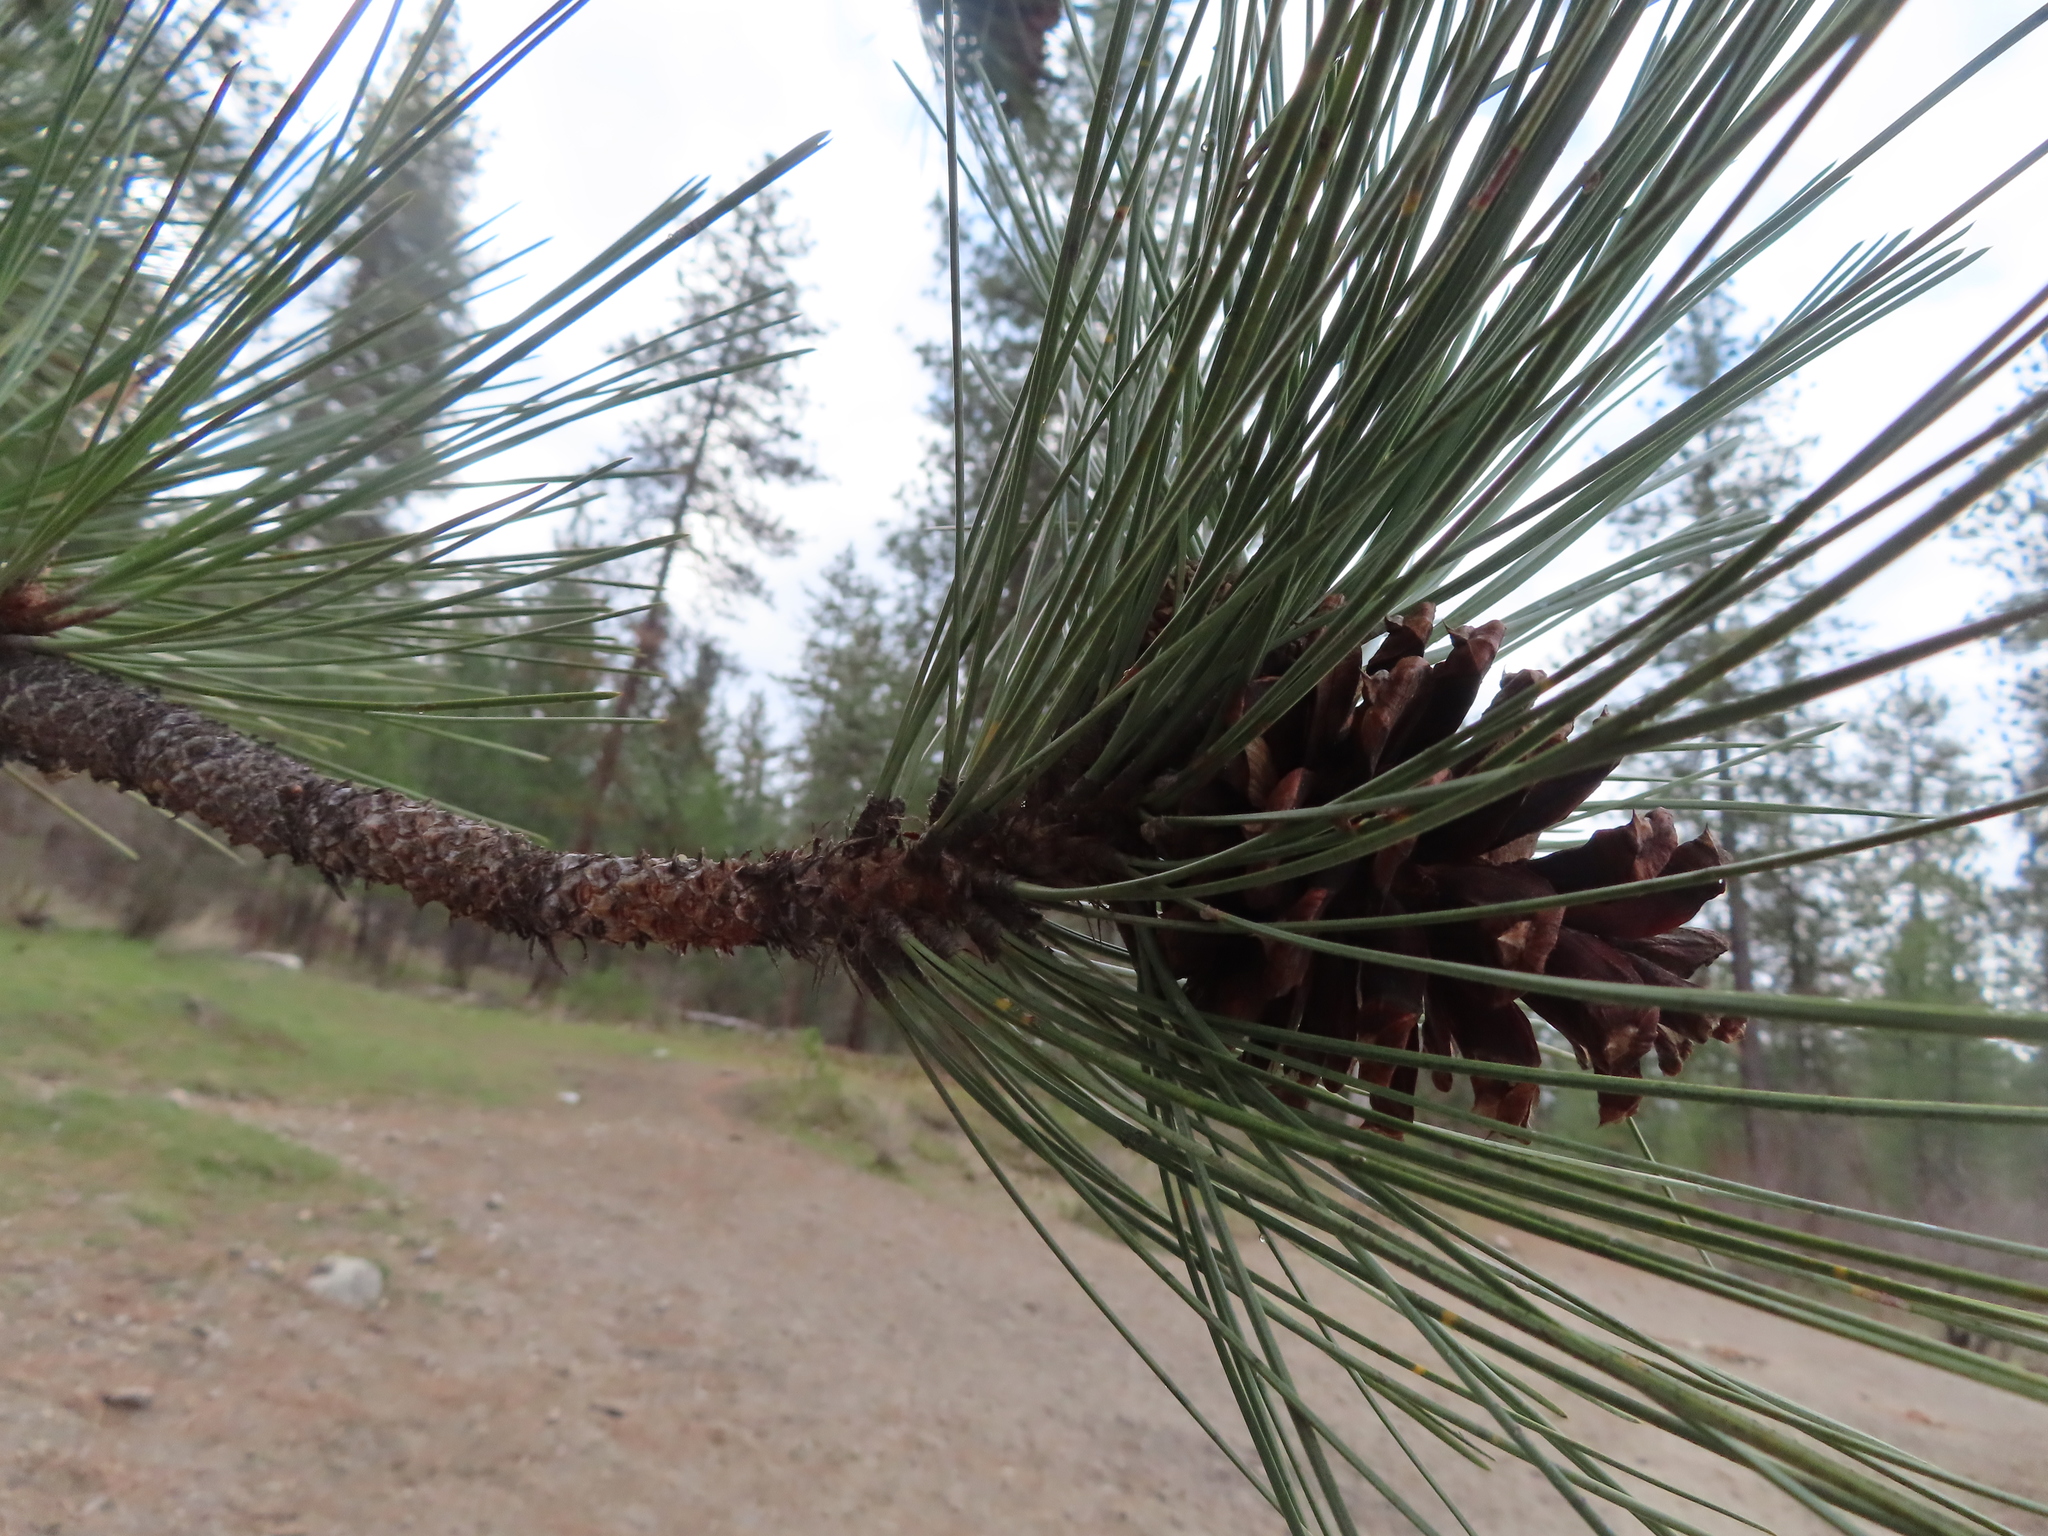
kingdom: Plantae
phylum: Tracheophyta
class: Pinopsida
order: Pinales
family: Pinaceae
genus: Pinus
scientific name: Pinus ponderosa
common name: Western yellow-pine
